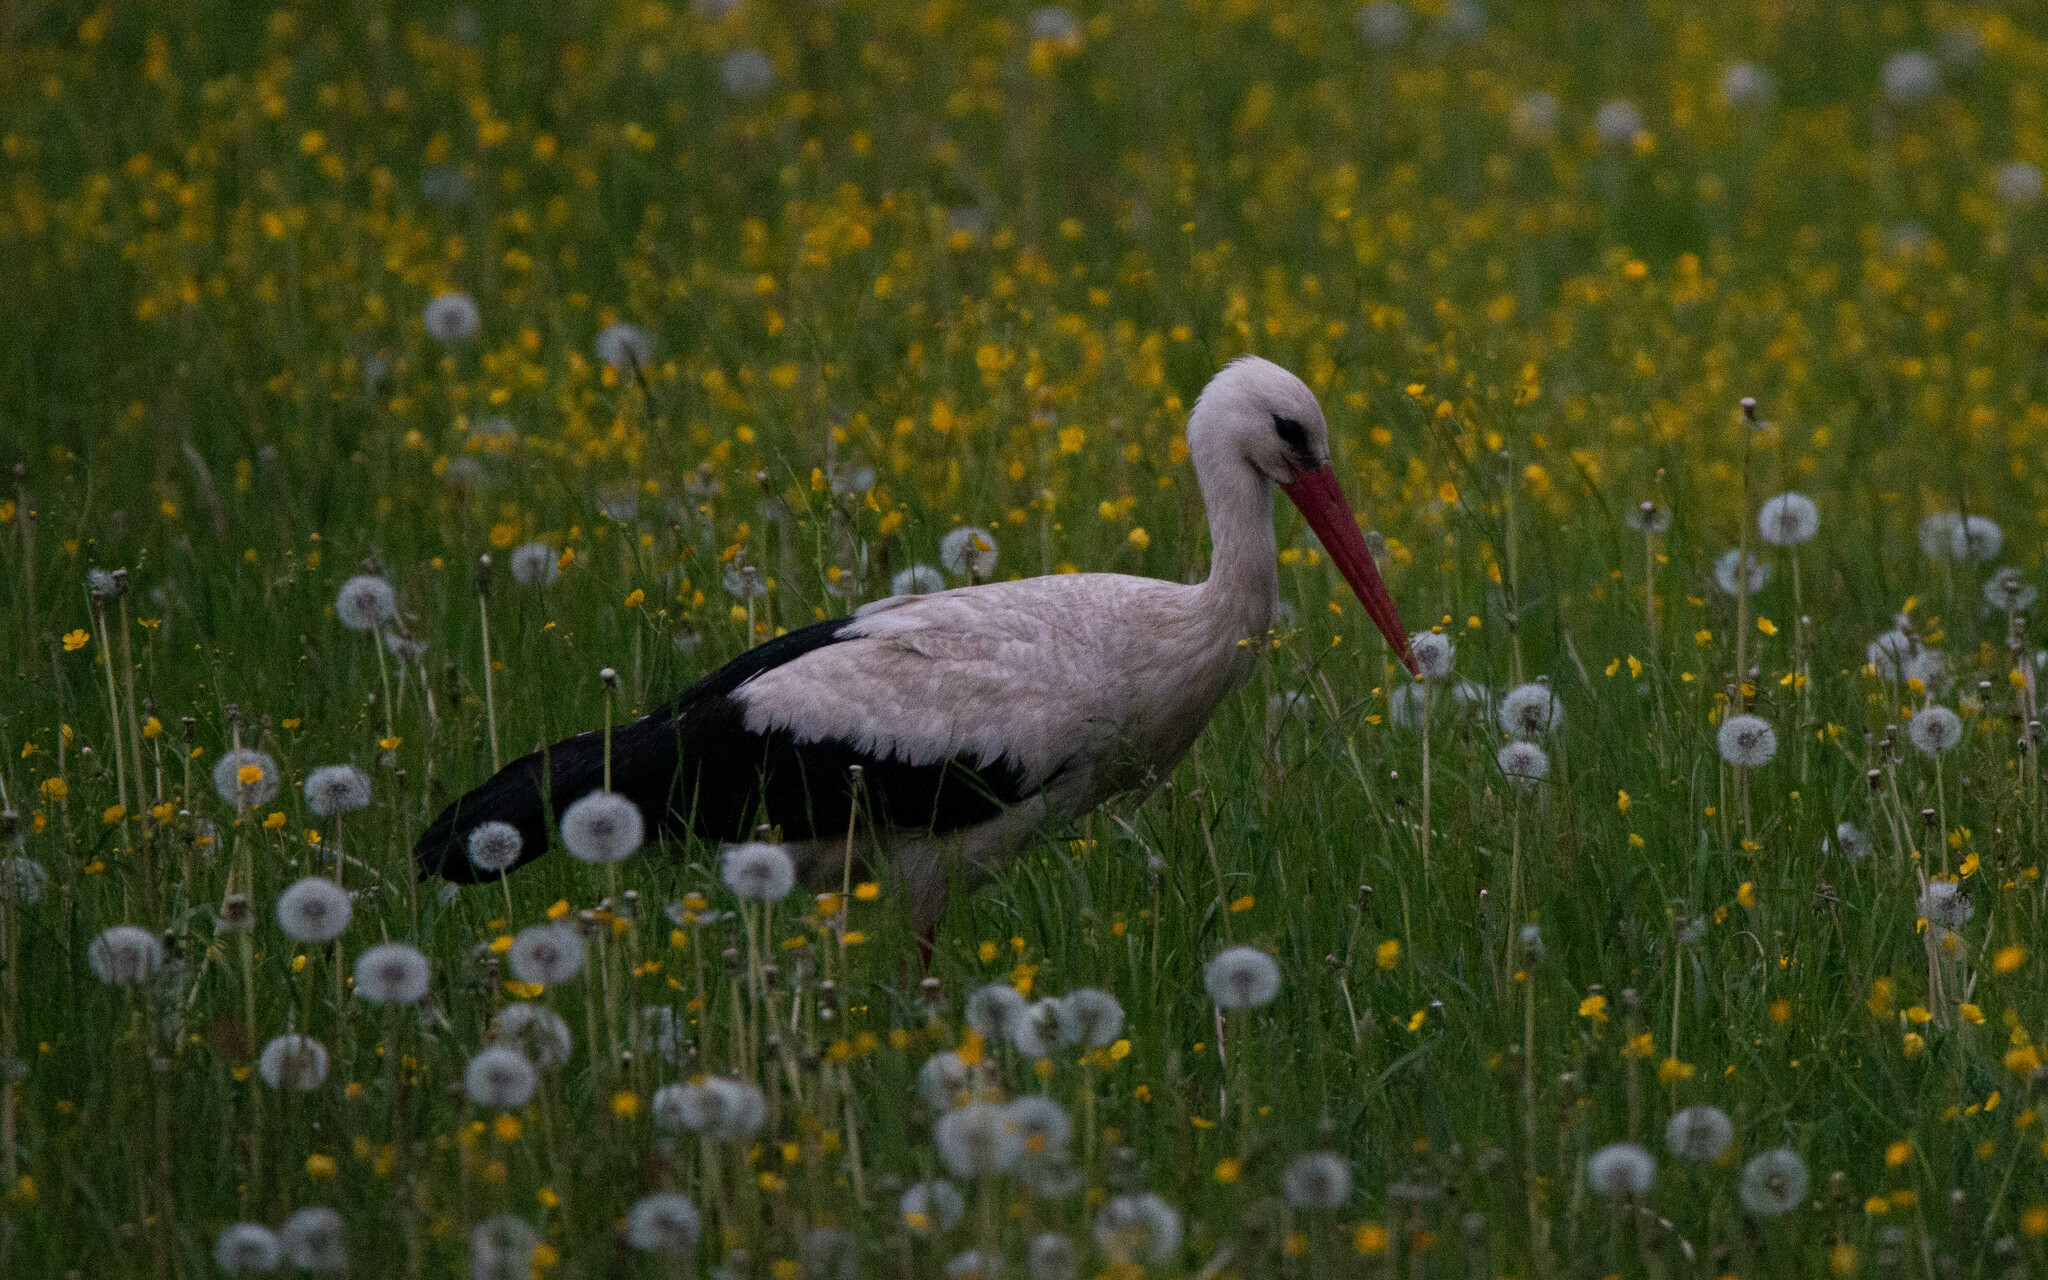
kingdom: Animalia
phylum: Chordata
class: Aves
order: Ciconiiformes
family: Ciconiidae
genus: Ciconia
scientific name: Ciconia ciconia
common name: White stork
